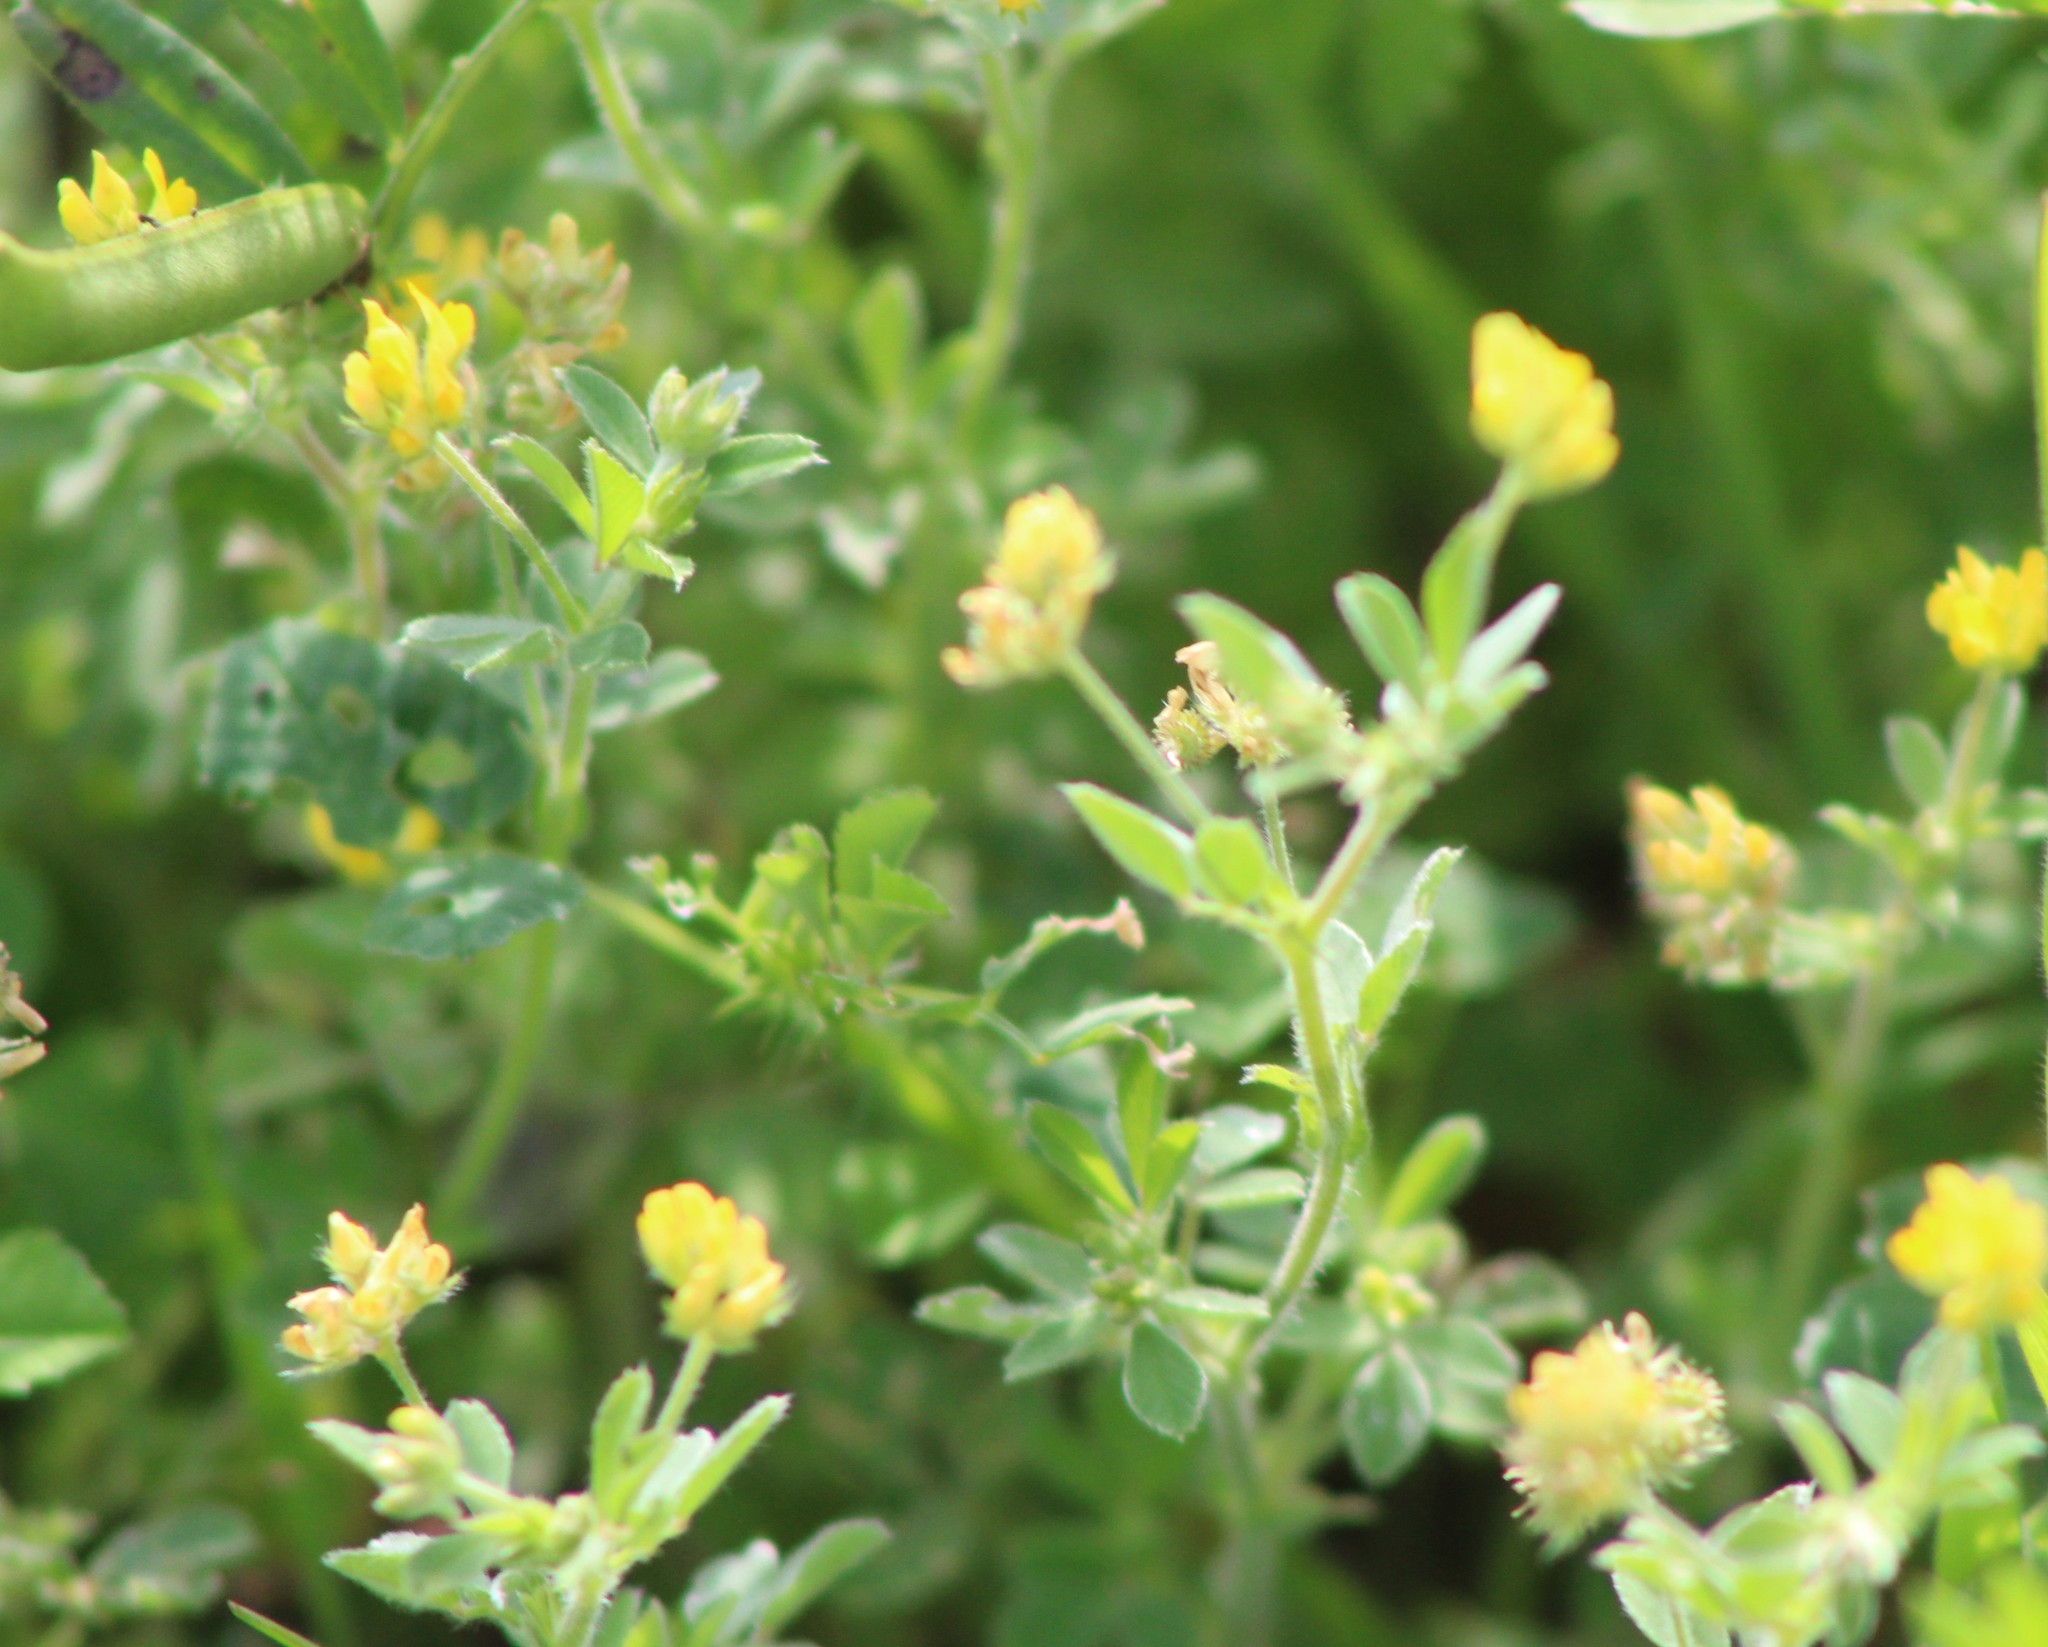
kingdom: Plantae
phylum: Tracheophyta
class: Magnoliopsida
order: Fabales
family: Fabaceae
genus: Medicago
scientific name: Medicago minima
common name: Little bur-clover
